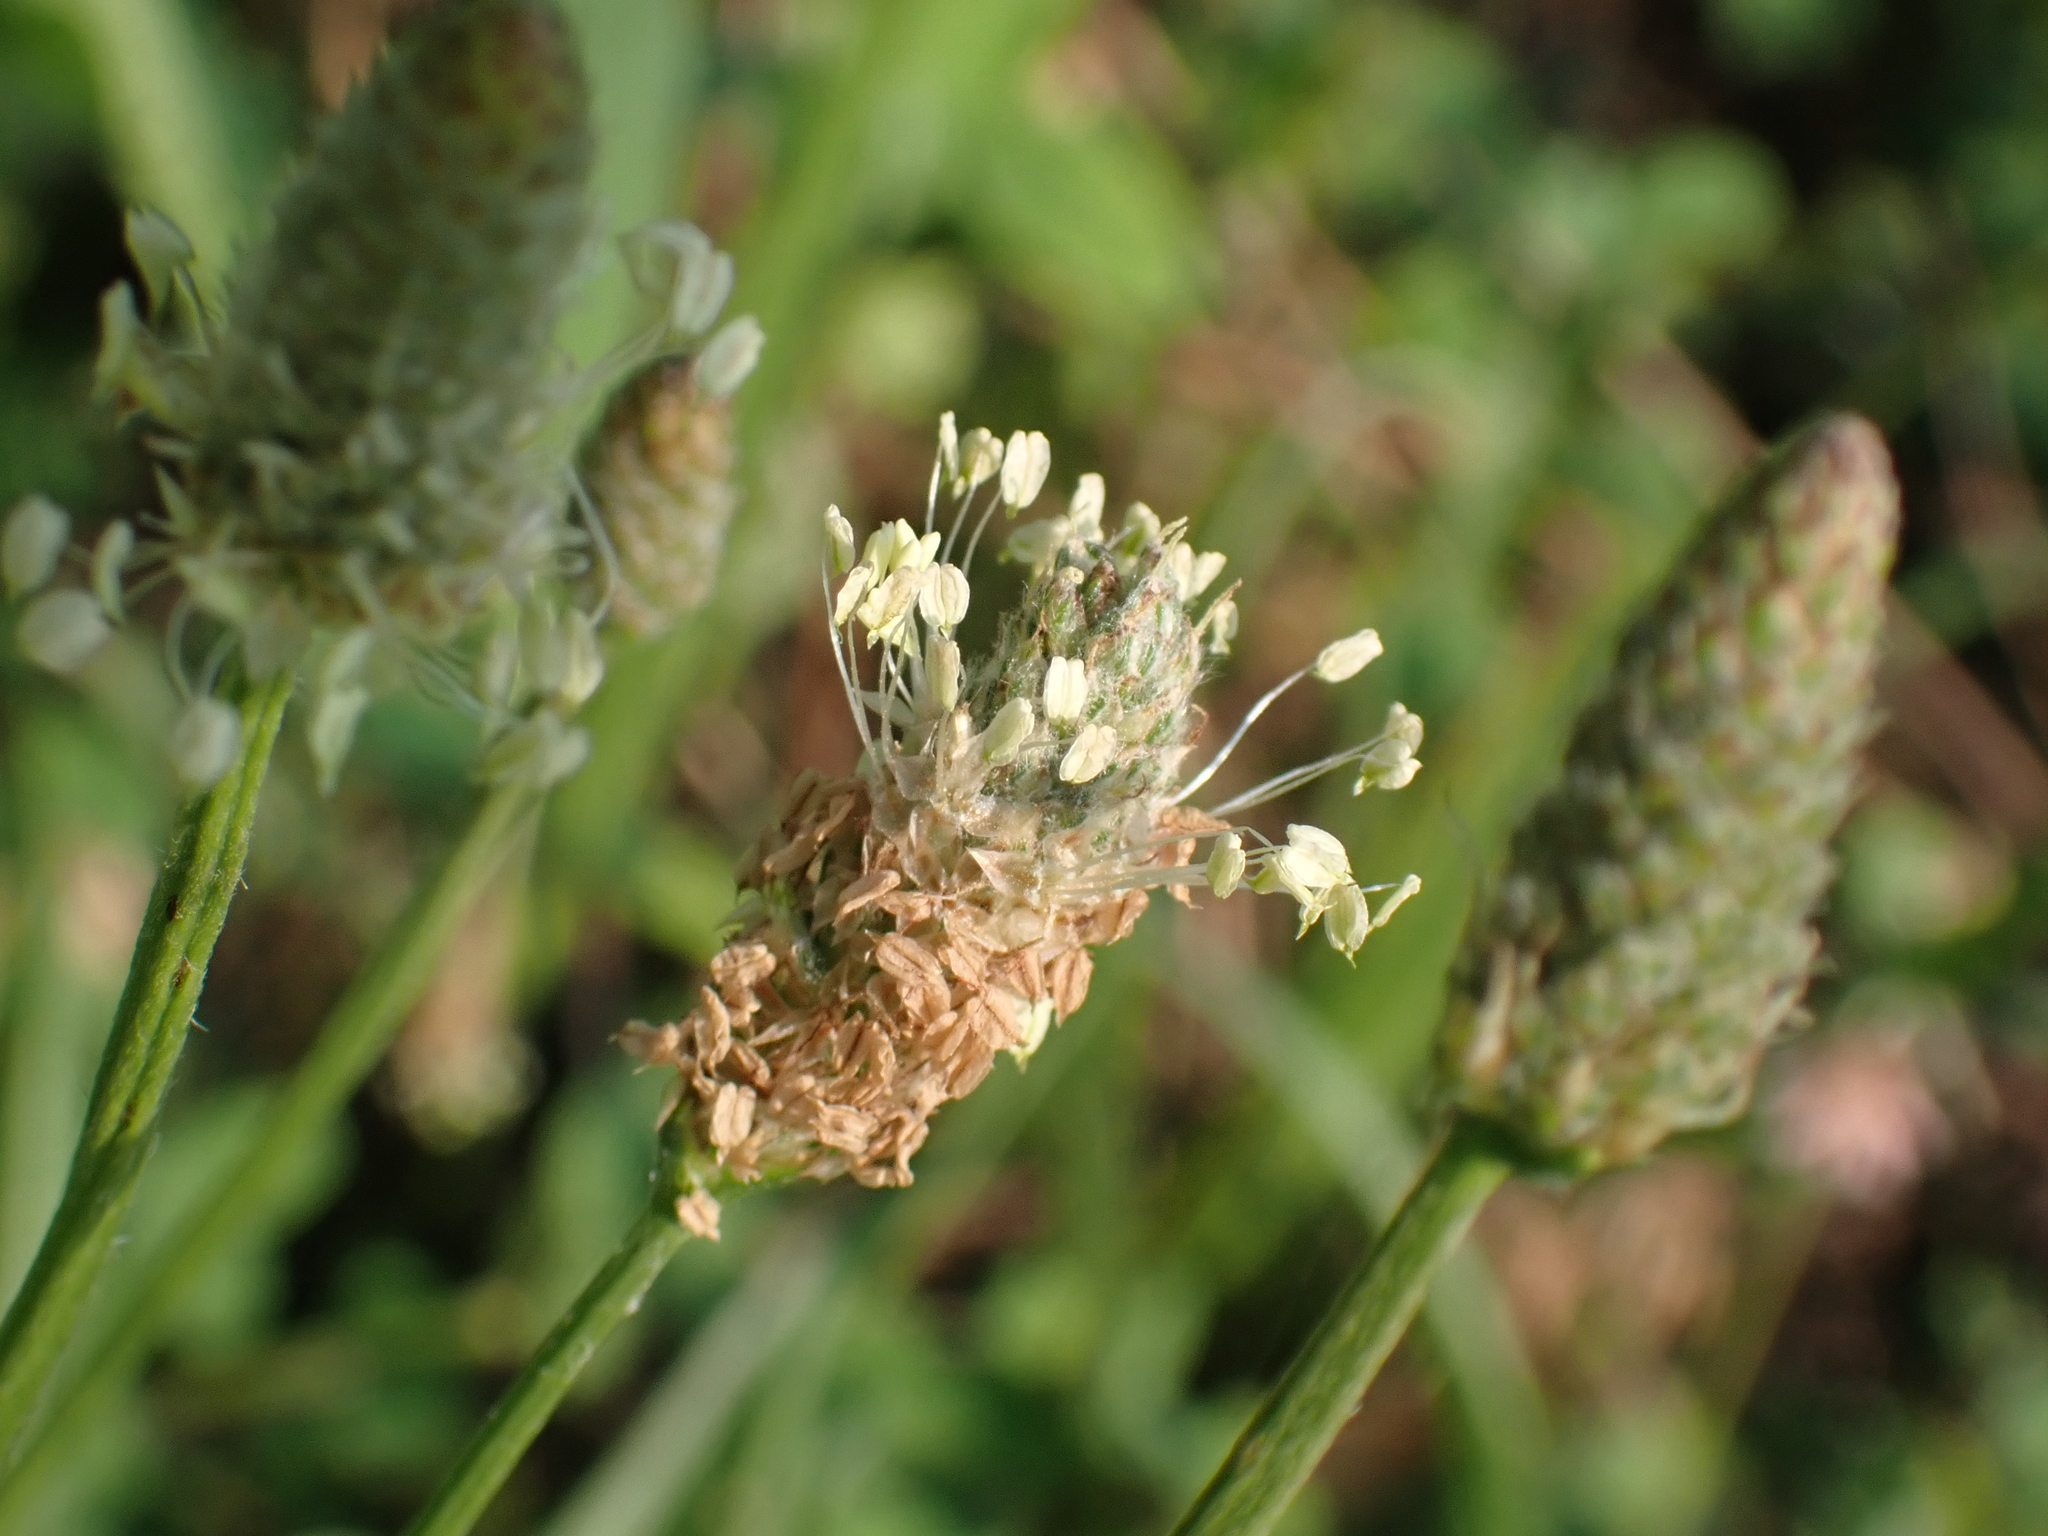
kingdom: Plantae
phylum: Tracheophyta
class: Magnoliopsida
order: Lamiales
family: Plantaginaceae
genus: Plantago
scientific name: Plantago lanceolata
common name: Ribwort plantain
